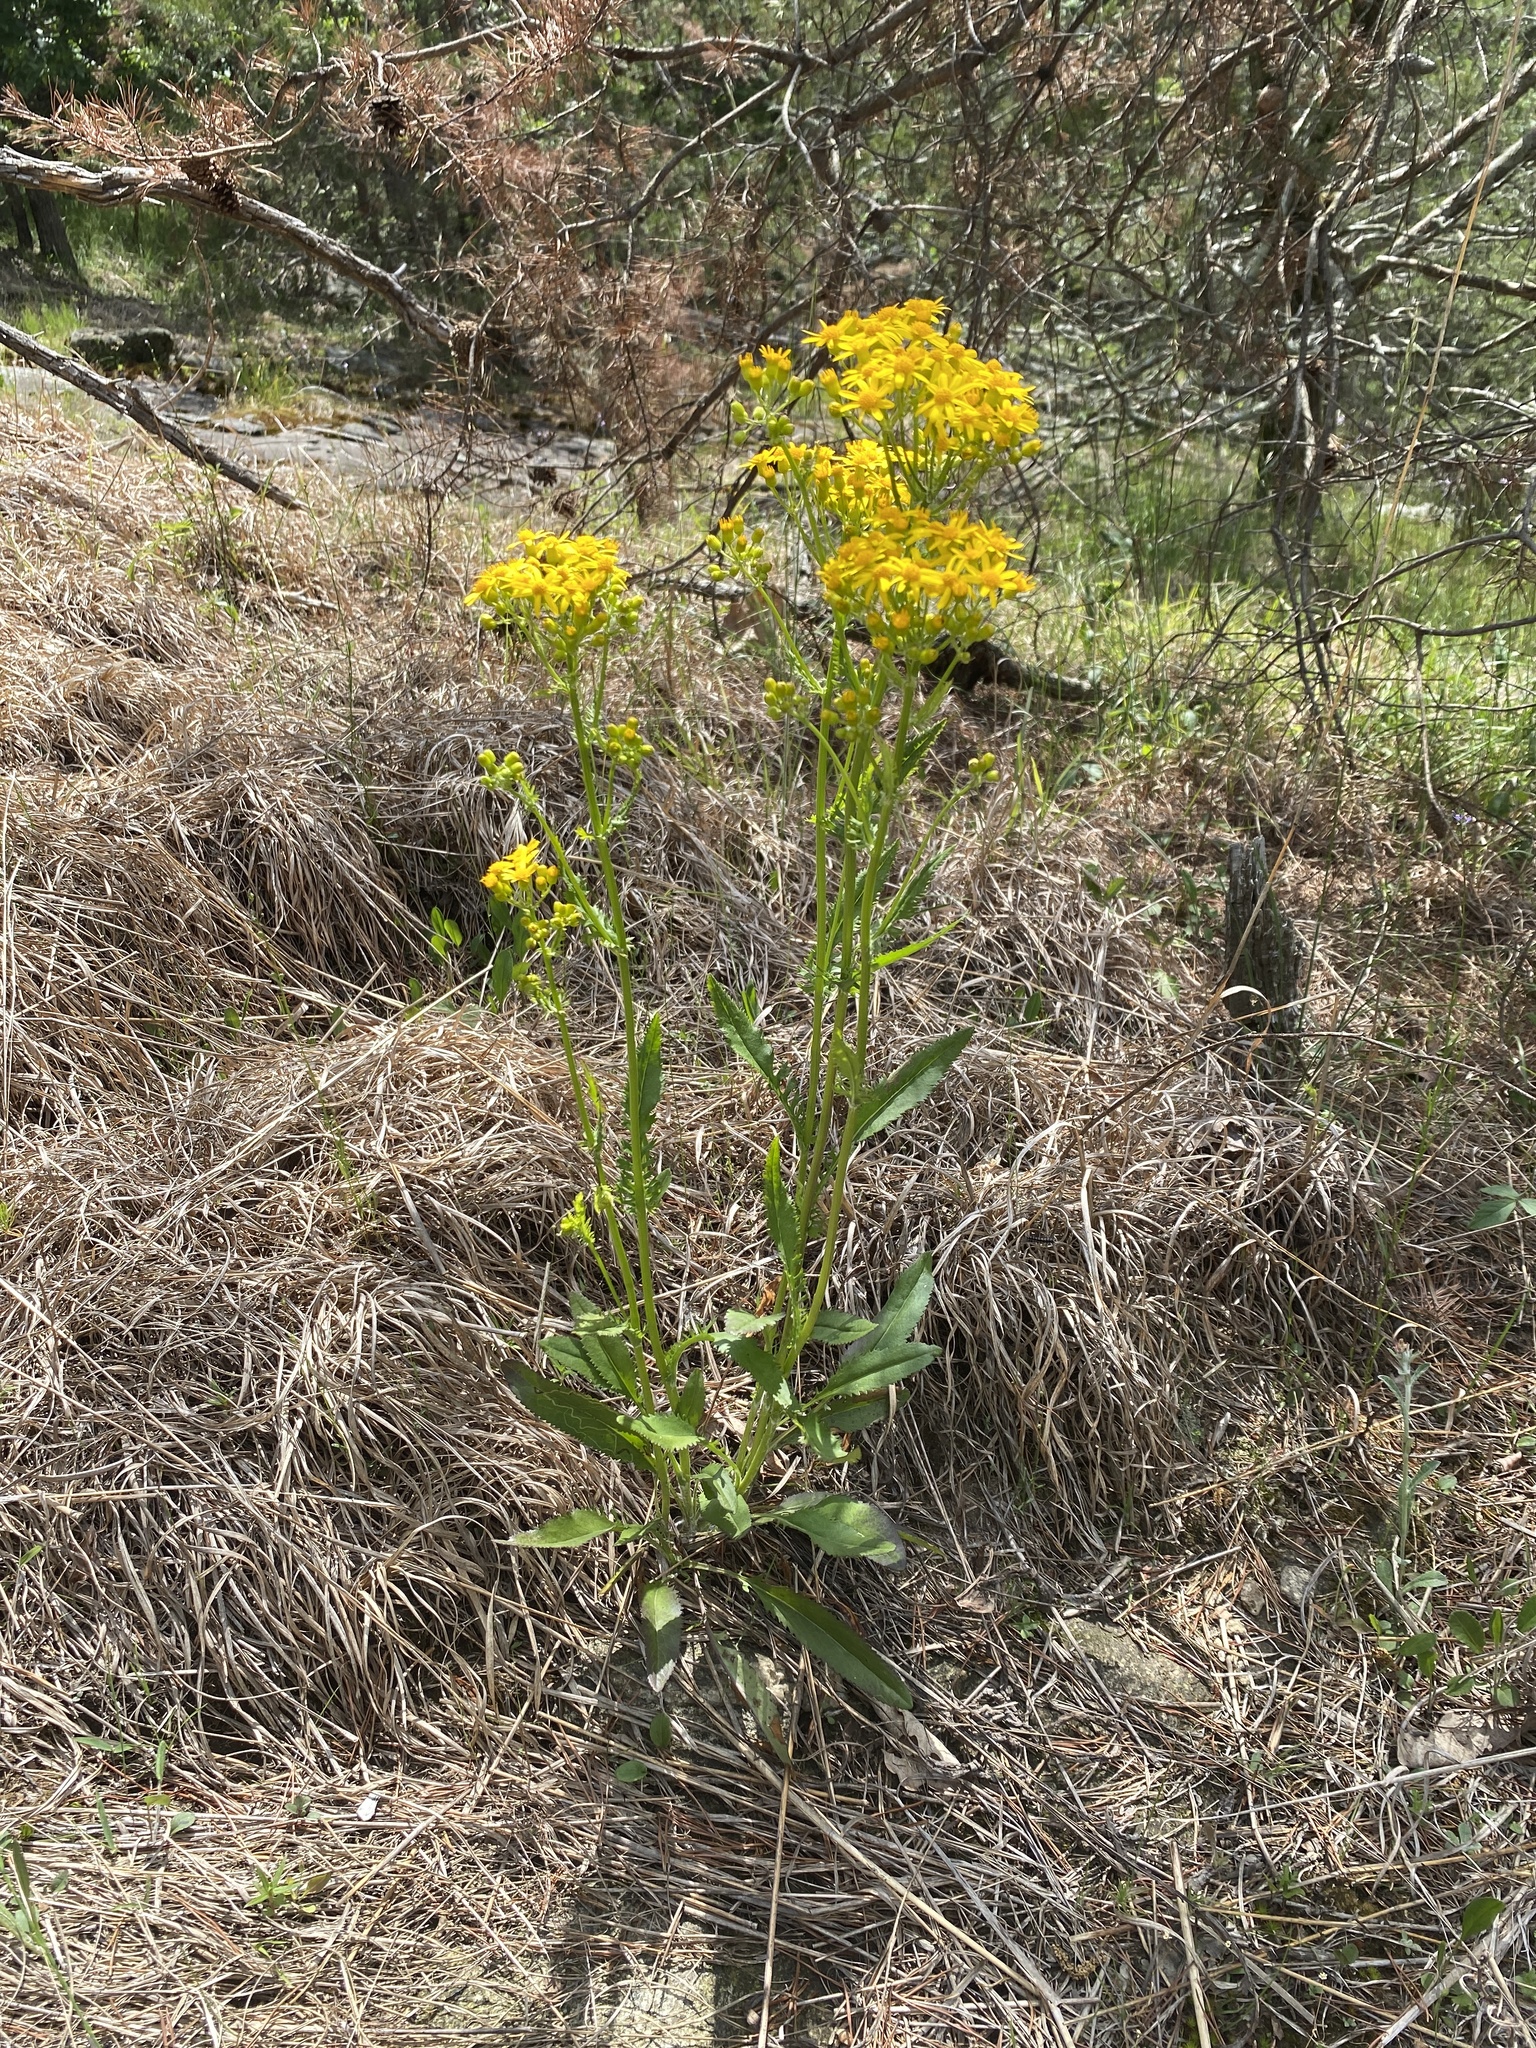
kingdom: Plantae
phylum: Tracheophyta
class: Magnoliopsida
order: Asterales
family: Asteraceae
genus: Packera
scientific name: Packera anonyma
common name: Small ragwort
